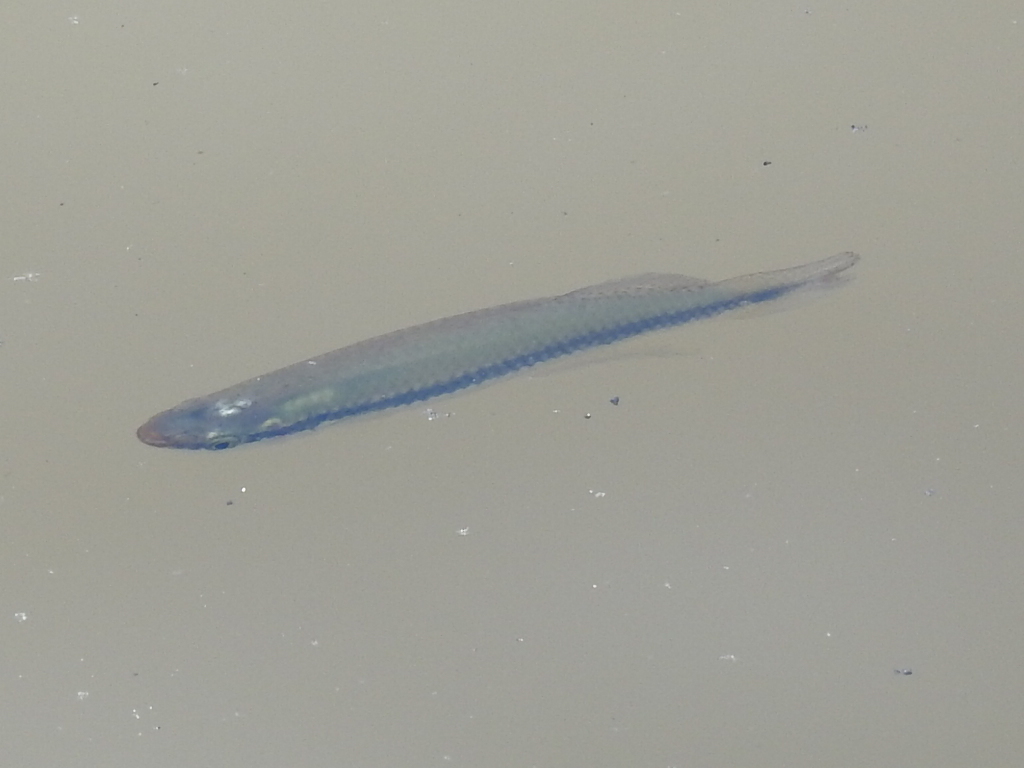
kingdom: Animalia
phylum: Chordata
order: Cyprinodontiformes
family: Fundulidae
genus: Fundulus
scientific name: Fundulus notatus
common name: Blackstripe topminnow
